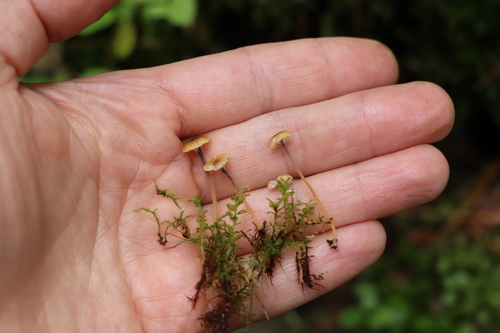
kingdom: Fungi
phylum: Basidiomycota
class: Agaricomycetes
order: Hymenochaetales
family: Rickenellaceae
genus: Rickenella
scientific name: Rickenella swartzii
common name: Collared mosscap
